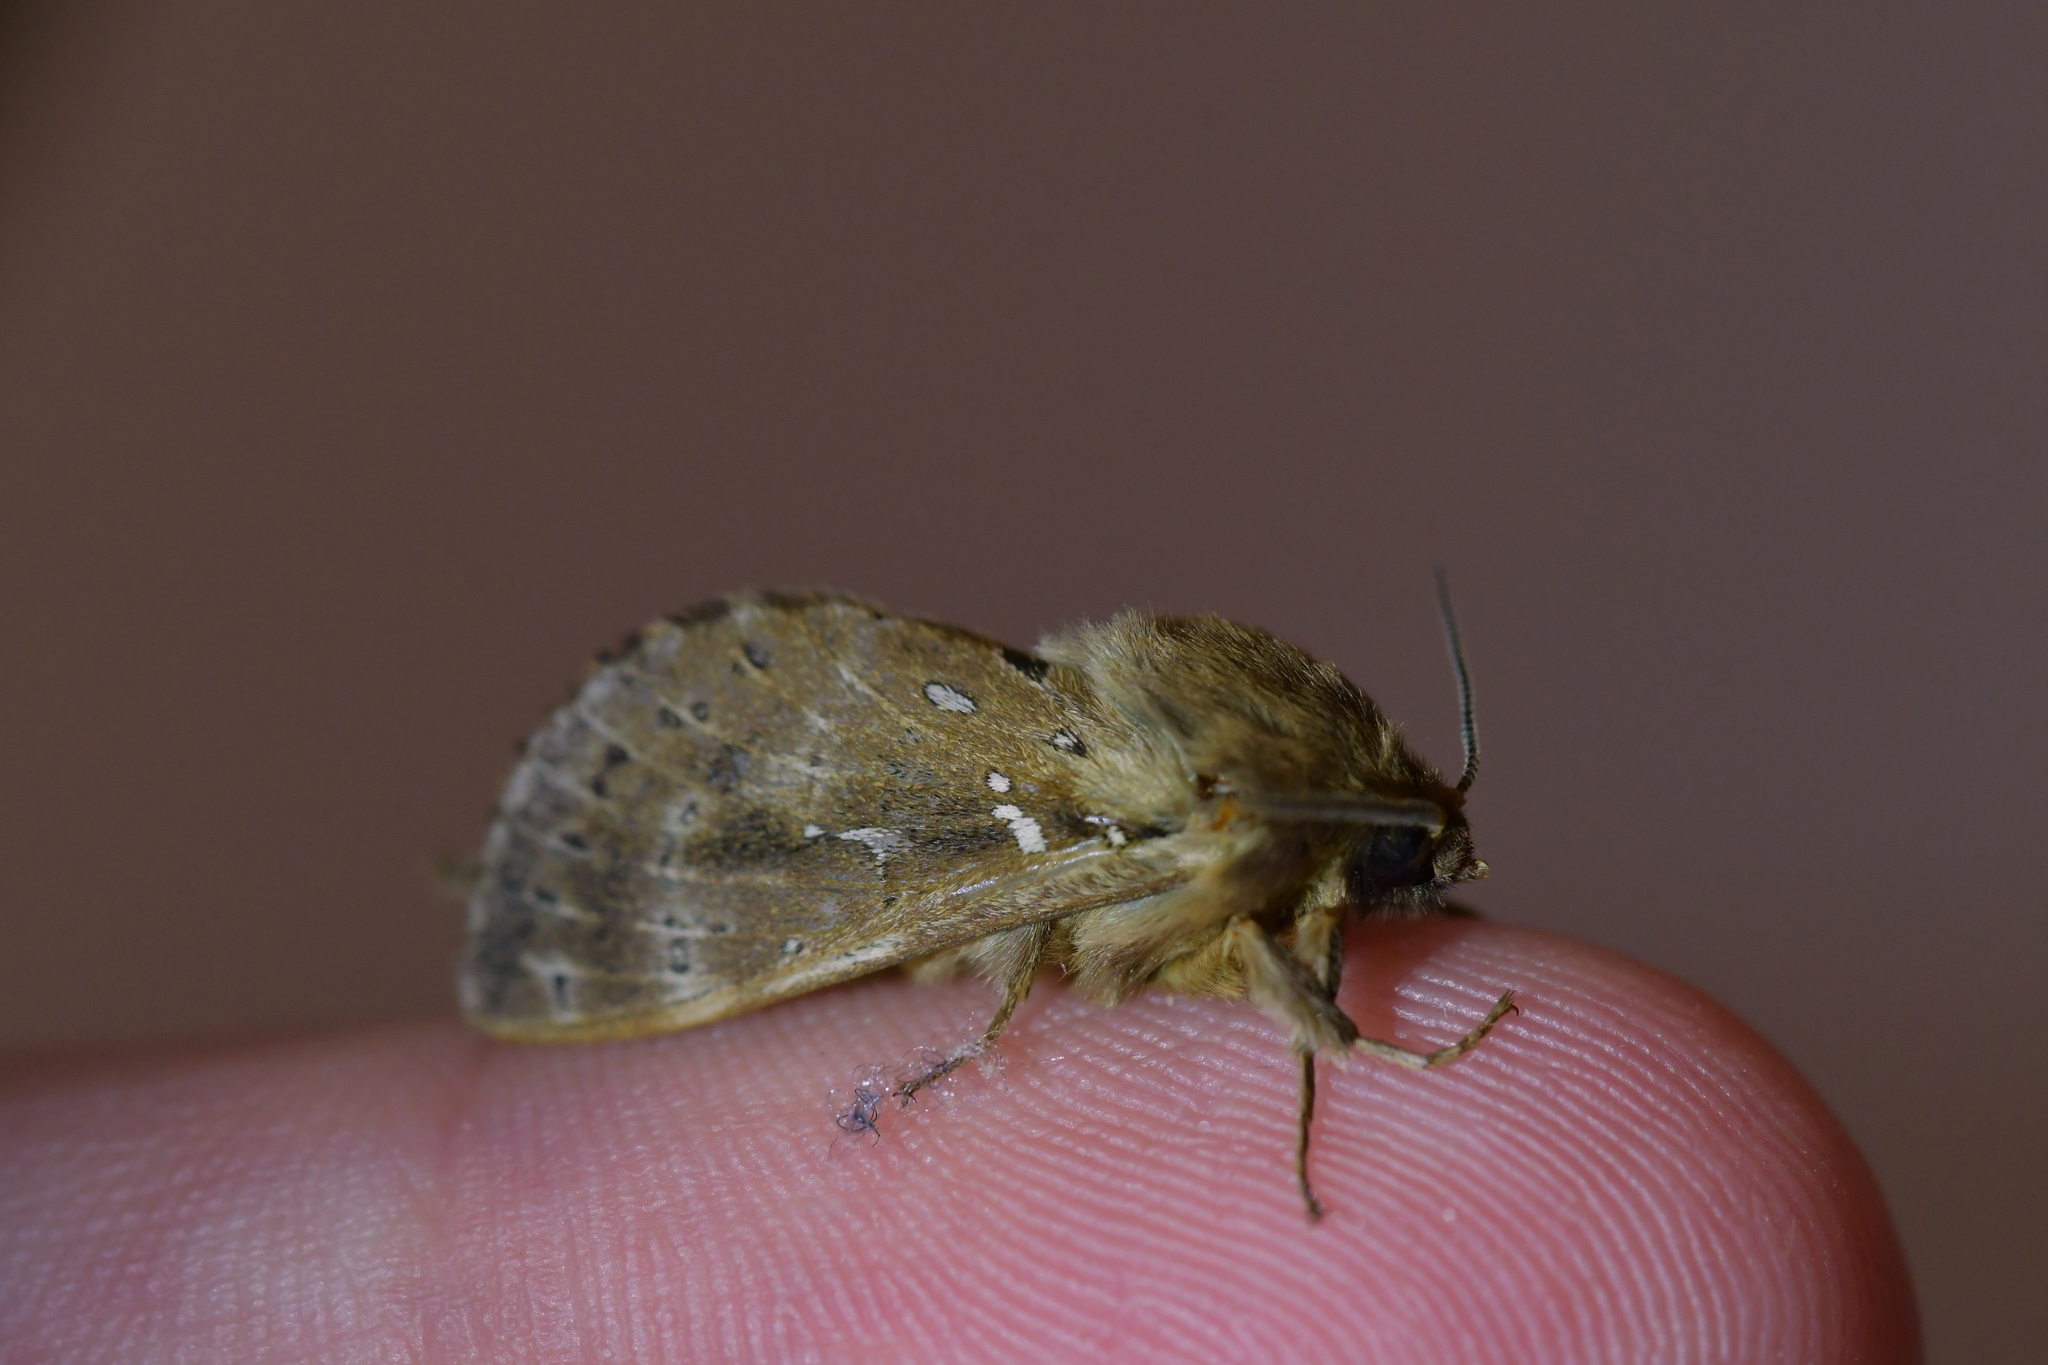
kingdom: Animalia
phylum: Arthropoda
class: Insecta
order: Lepidoptera
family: Hepialidae
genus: Wiseana
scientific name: Wiseana cervinata
